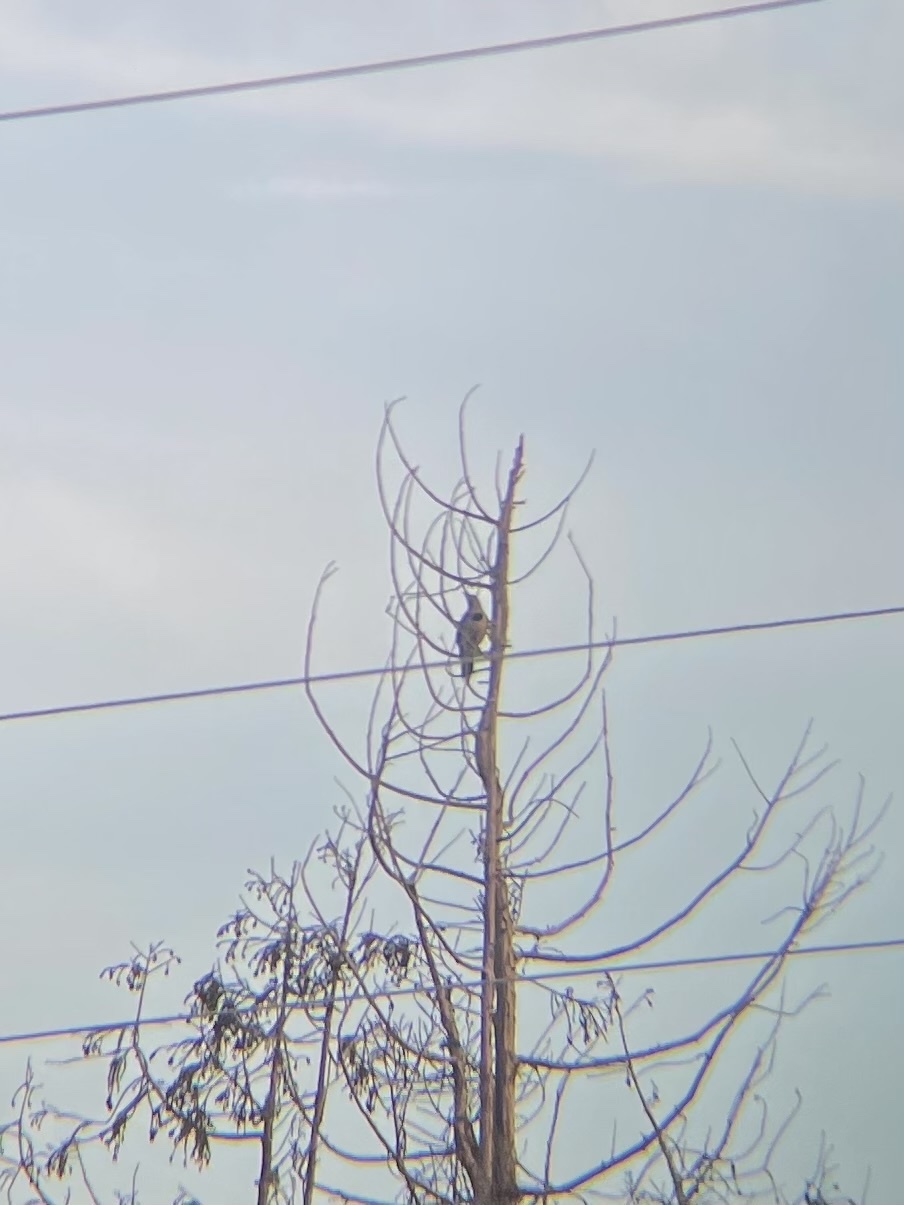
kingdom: Animalia
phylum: Chordata
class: Aves
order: Piciformes
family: Picidae
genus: Colaptes
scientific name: Colaptes auratus
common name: Northern flicker
